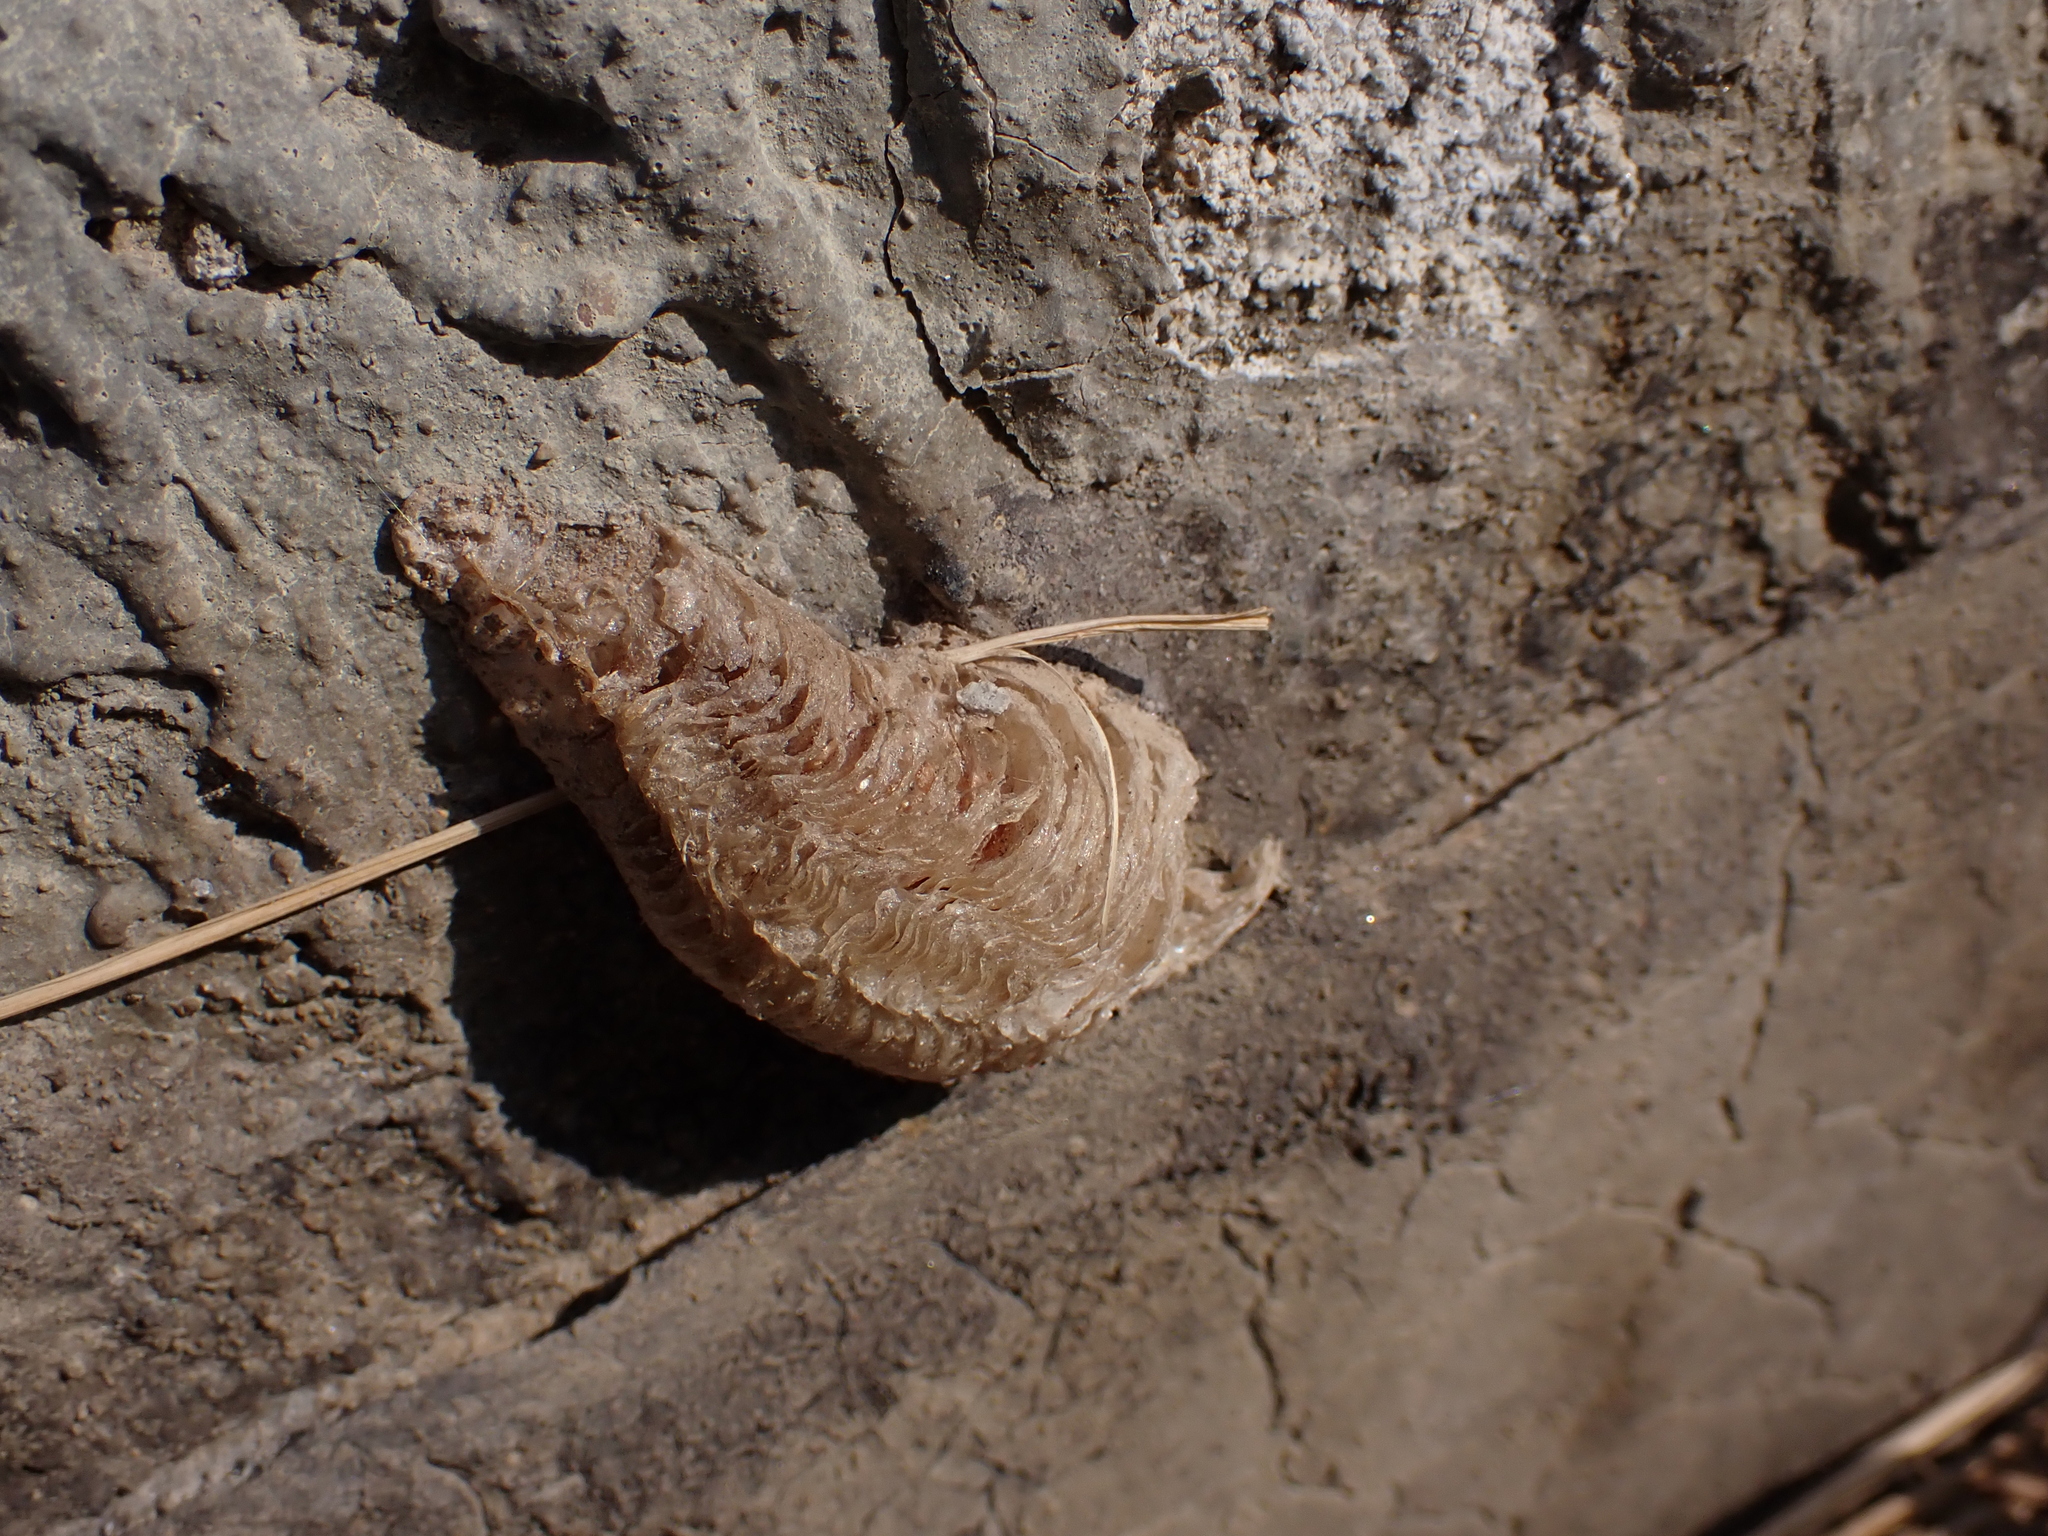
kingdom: Animalia
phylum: Arthropoda
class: Insecta
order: Mantodea
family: Mantidae
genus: Mantis
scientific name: Mantis religiosa
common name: Praying mantis
